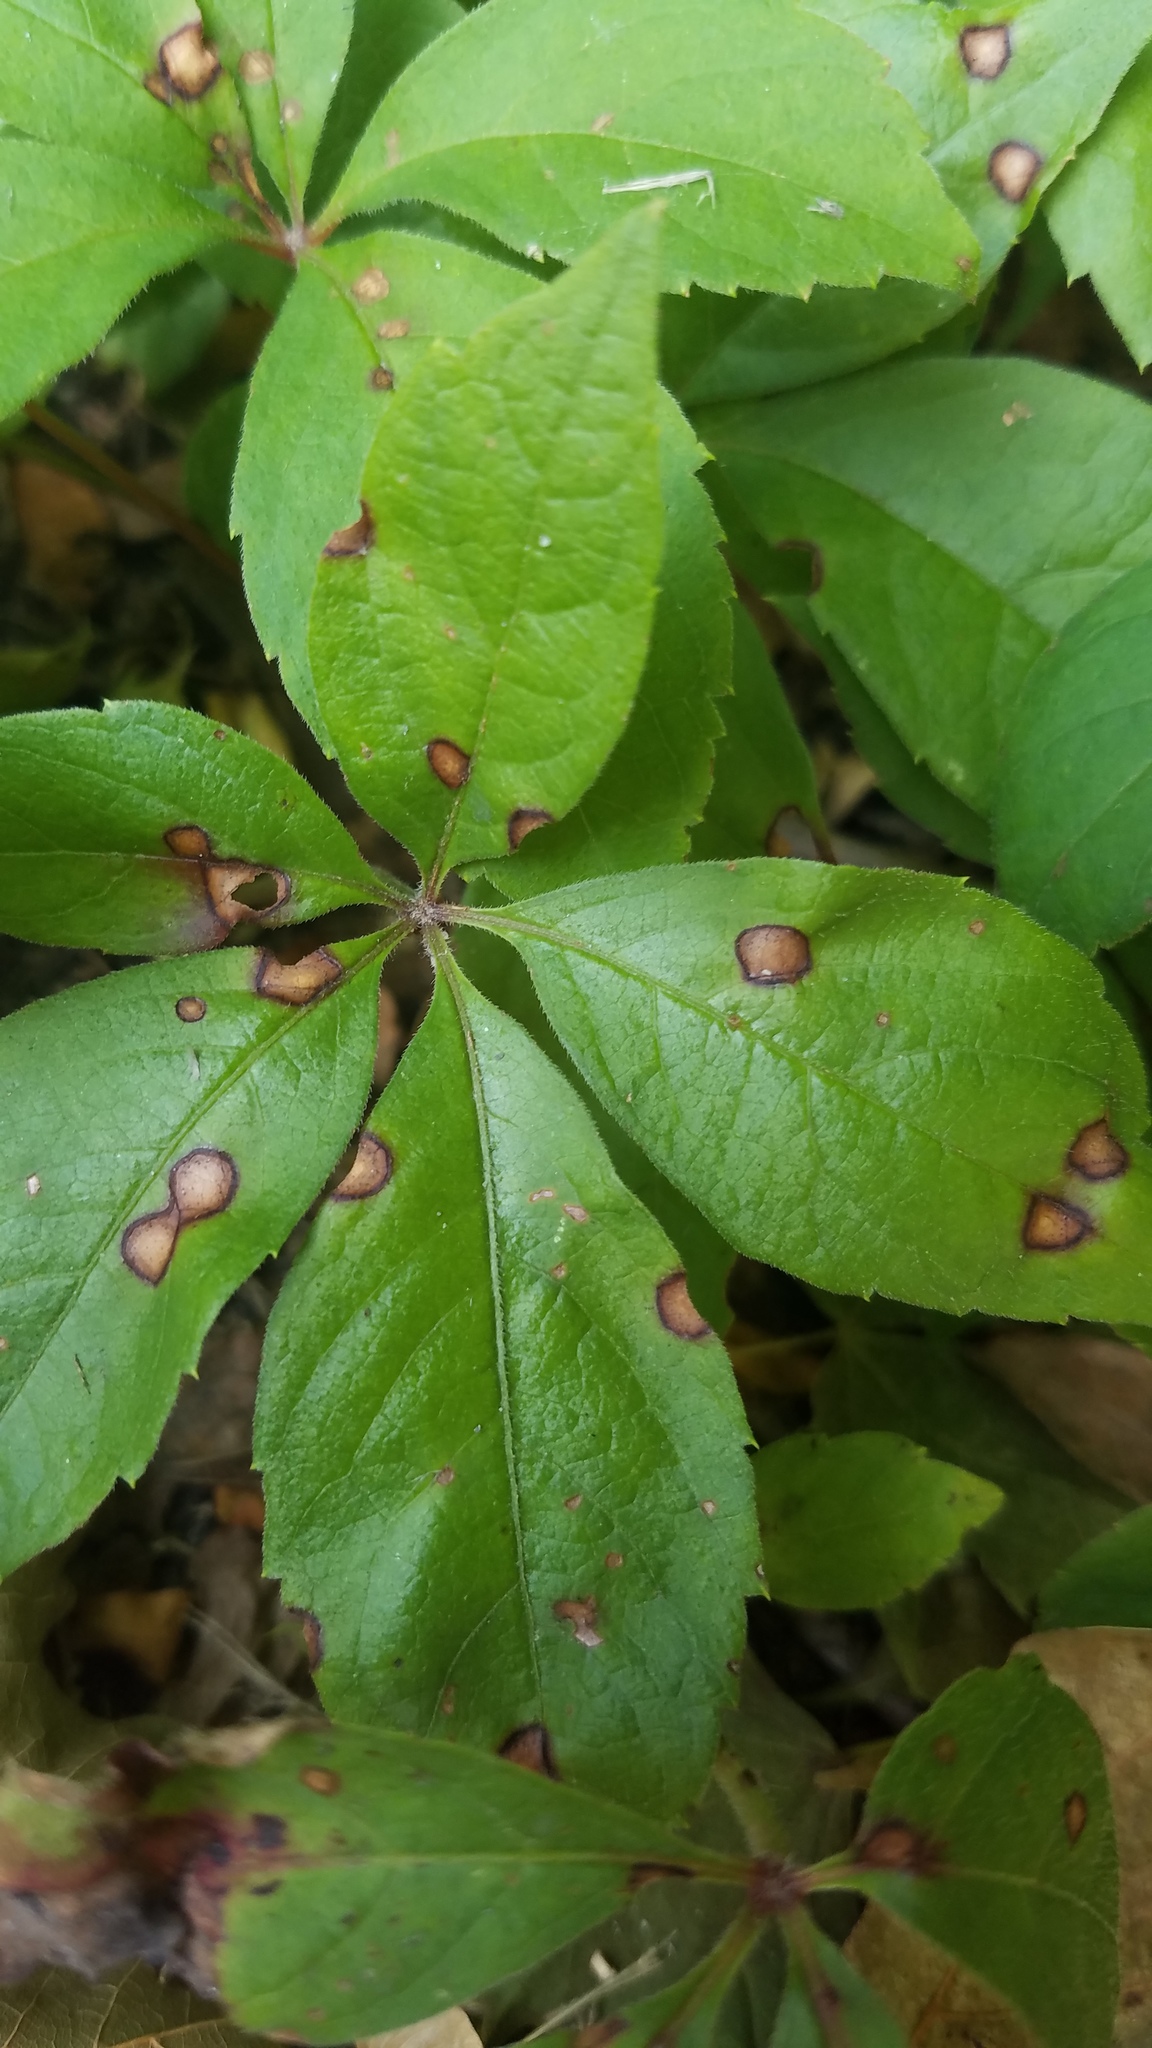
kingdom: Plantae
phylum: Tracheophyta
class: Magnoliopsida
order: Vitales
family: Vitaceae
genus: Parthenocissus
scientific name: Parthenocissus quinquefolia
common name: Virginia-creeper
